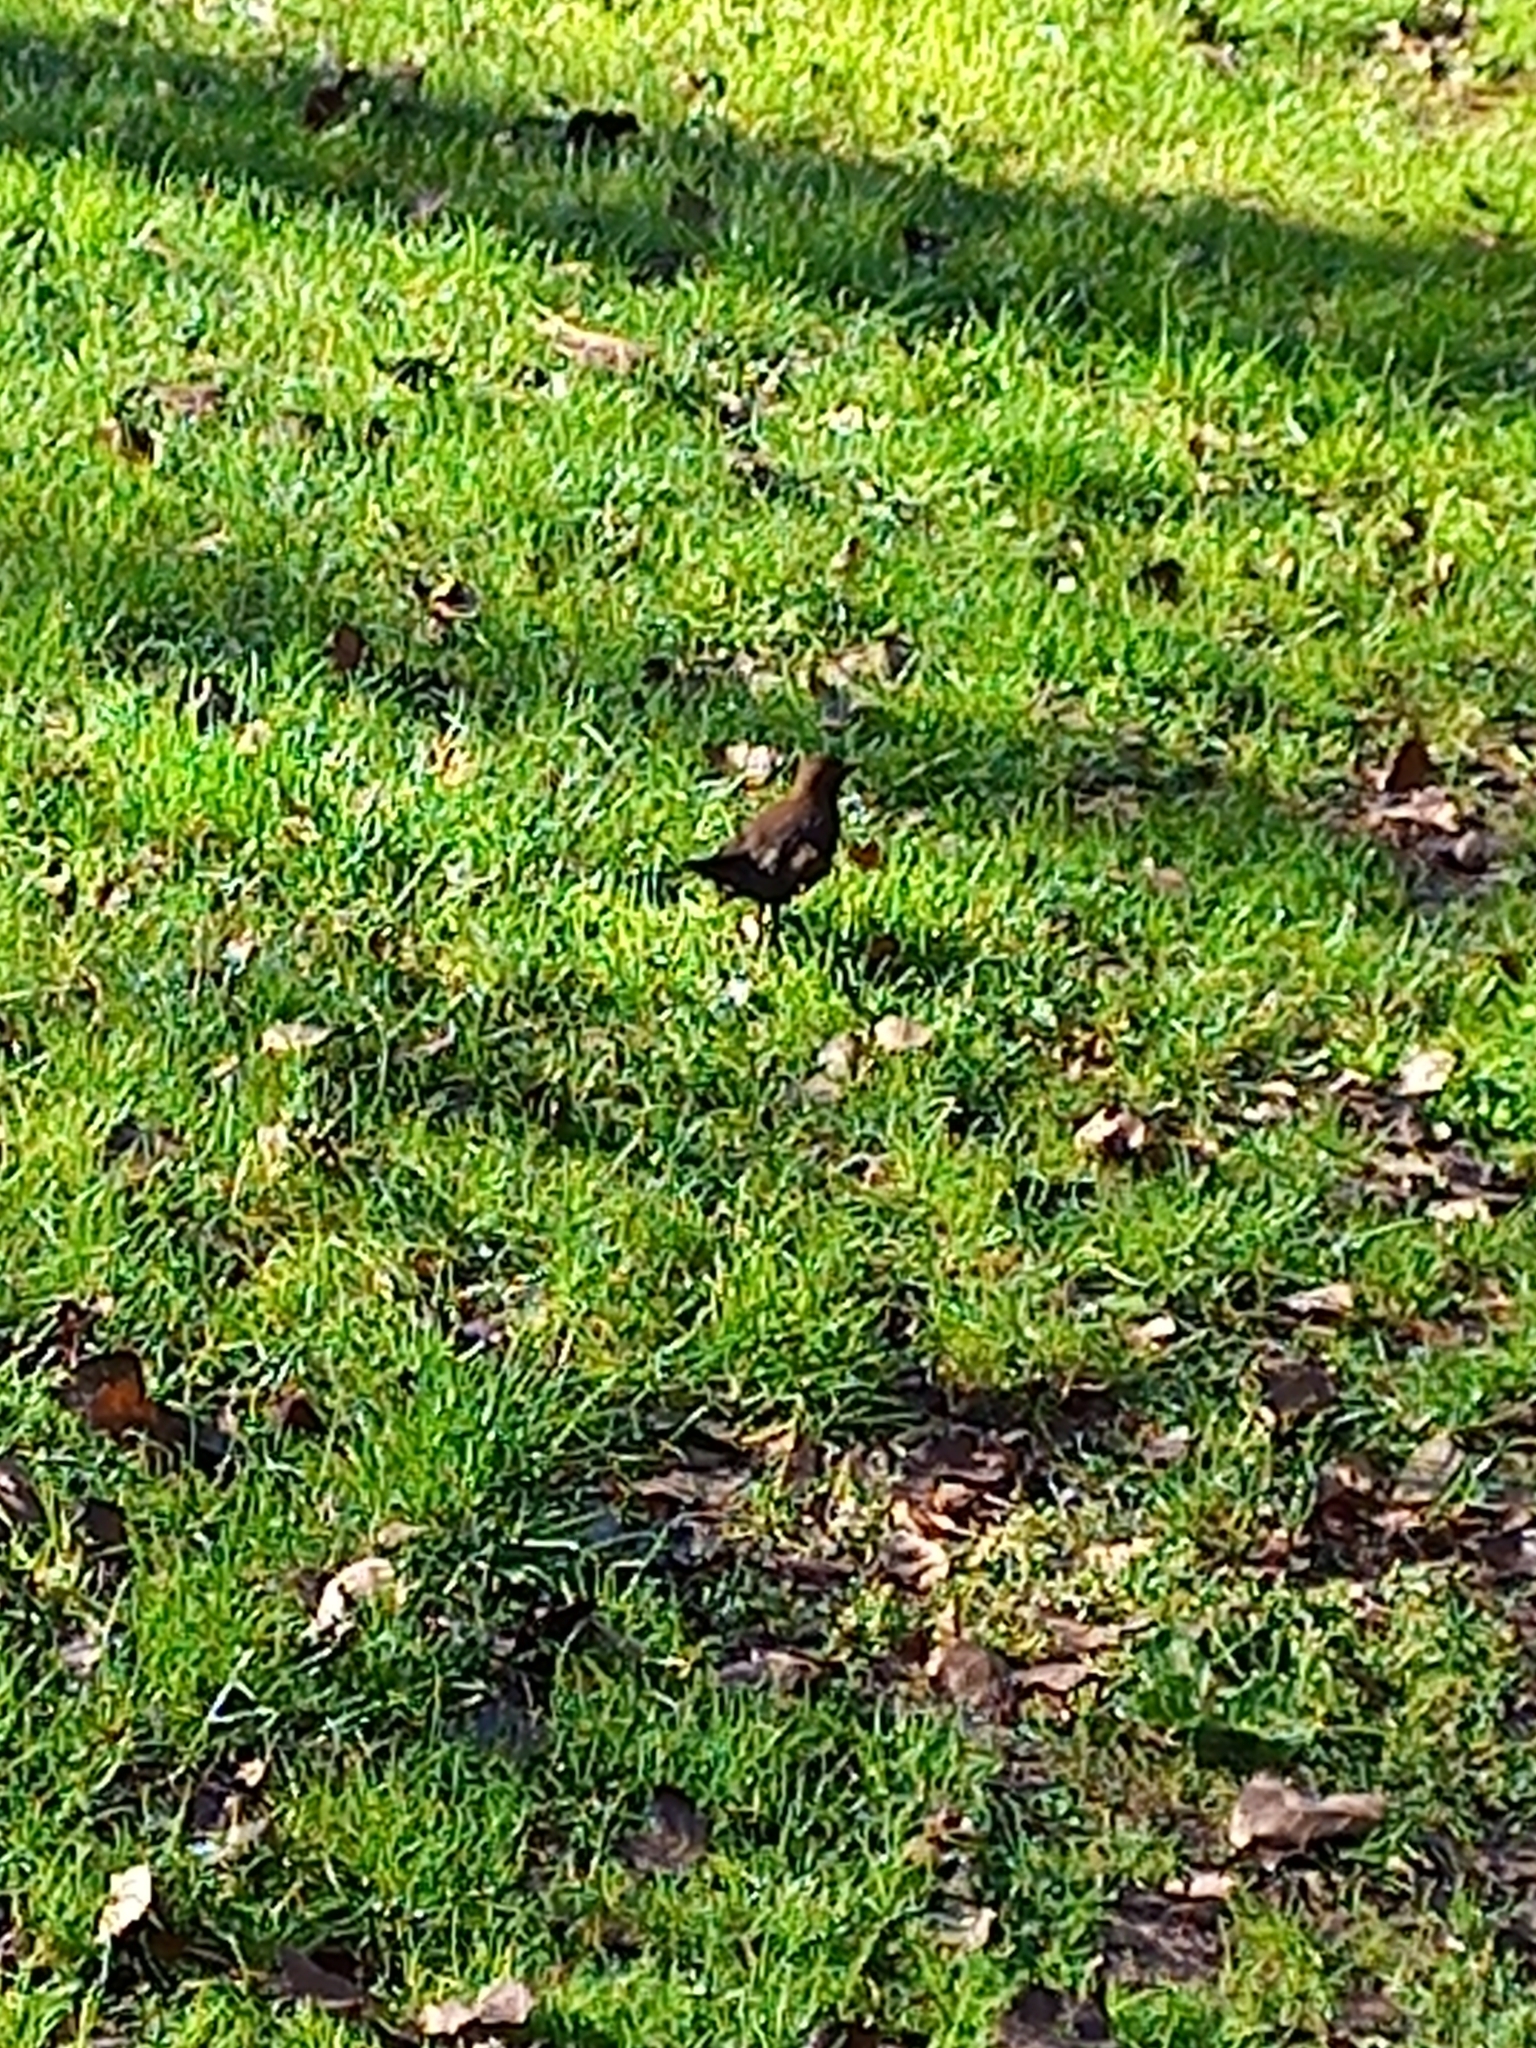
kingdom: Animalia
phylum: Chordata
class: Aves
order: Passeriformes
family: Turdidae
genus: Turdus
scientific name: Turdus merula
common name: Common blackbird
